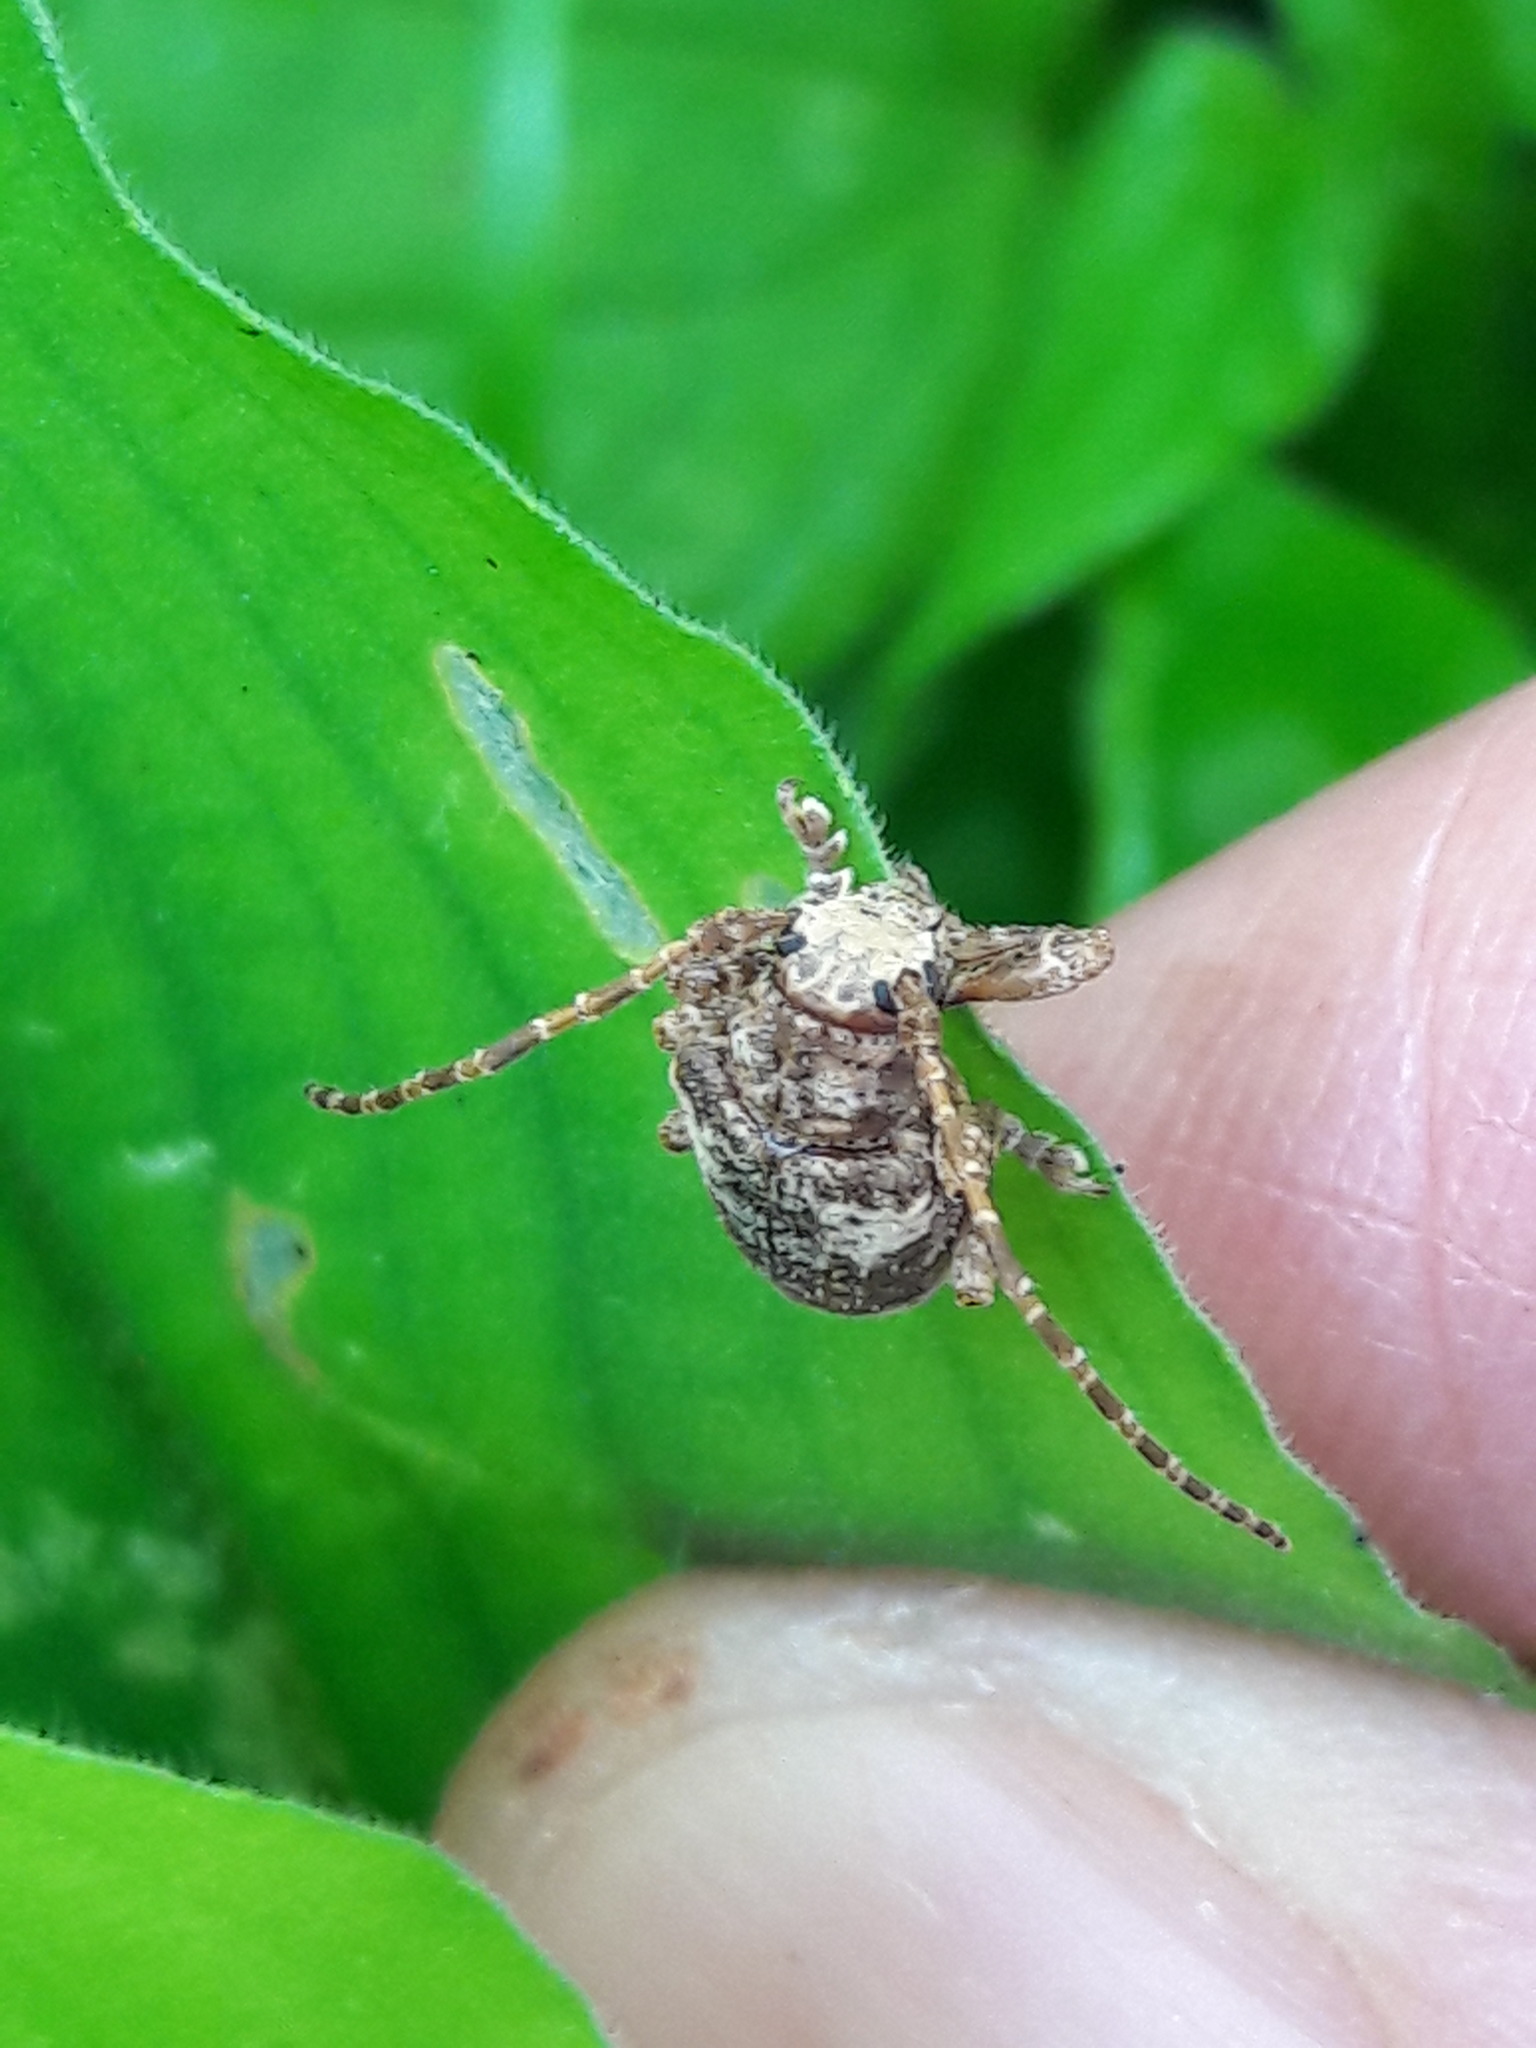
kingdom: Animalia
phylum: Arthropoda
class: Insecta
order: Coleoptera
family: Cerambycidae
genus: Aerenea
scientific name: Aerenea quadriplagiata
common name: Amaranth stem borer
